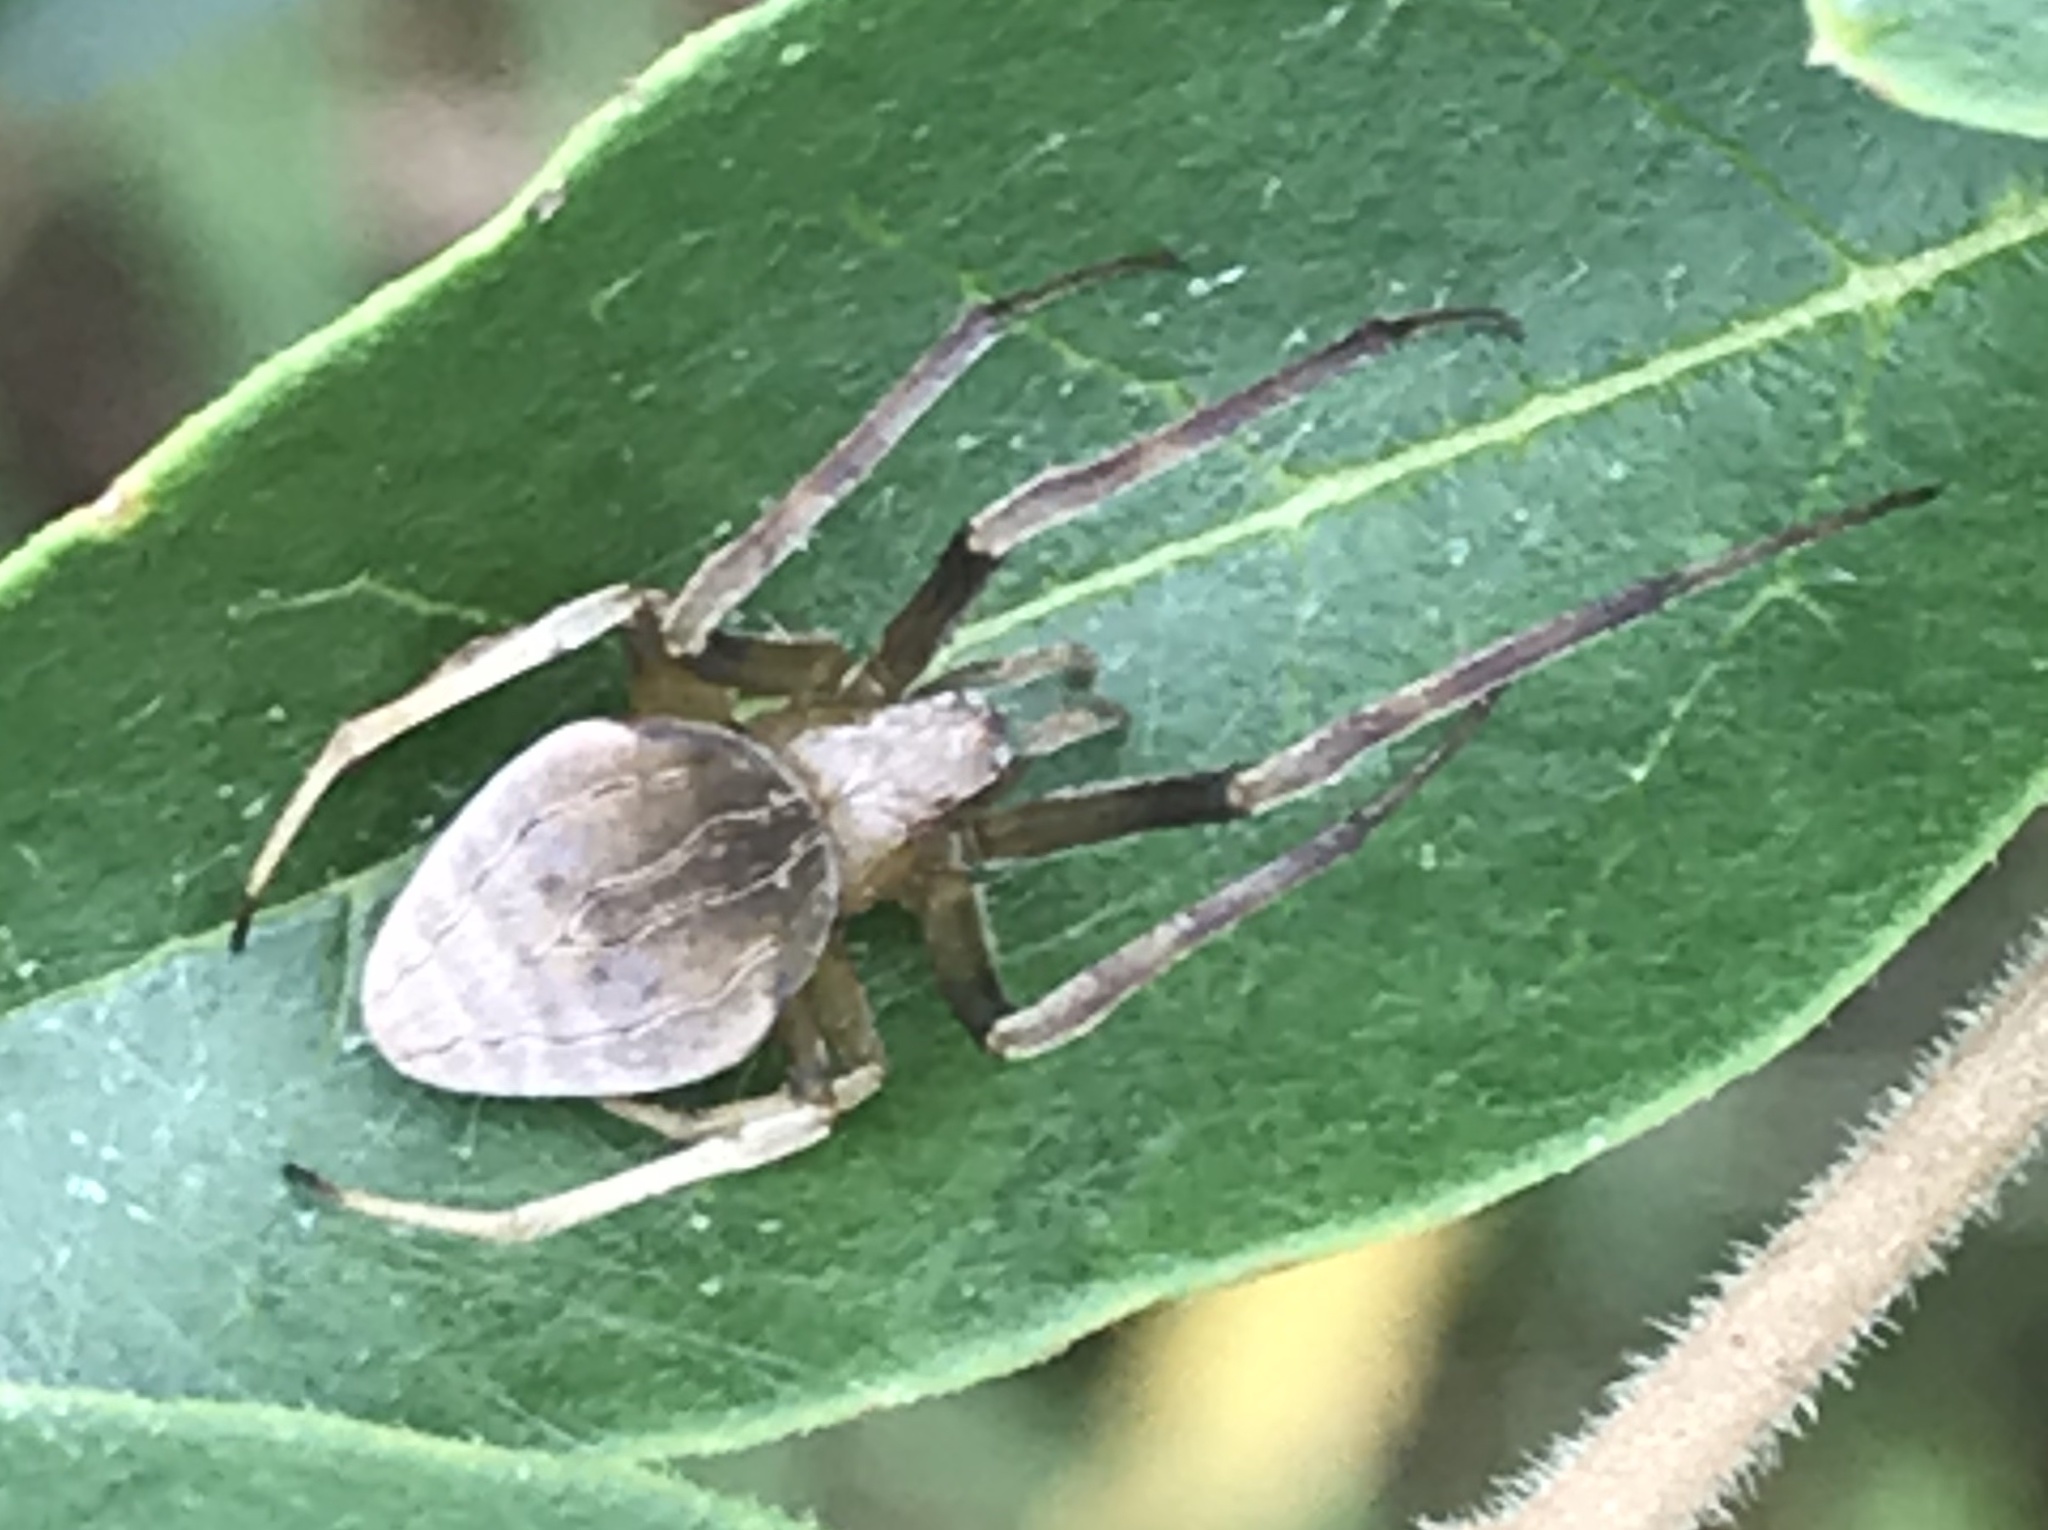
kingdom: Animalia
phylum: Arthropoda
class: Arachnida
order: Araneae
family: Araneidae
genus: Acacesia
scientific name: Acacesia hamata
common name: Orb weavers
